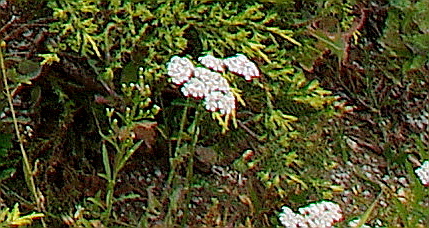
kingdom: Plantae
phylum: Tracheophyta
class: Magnoliopsida
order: Asterales
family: Asteraceae
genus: Achillea
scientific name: Achillea millefolium
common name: Yarrow
